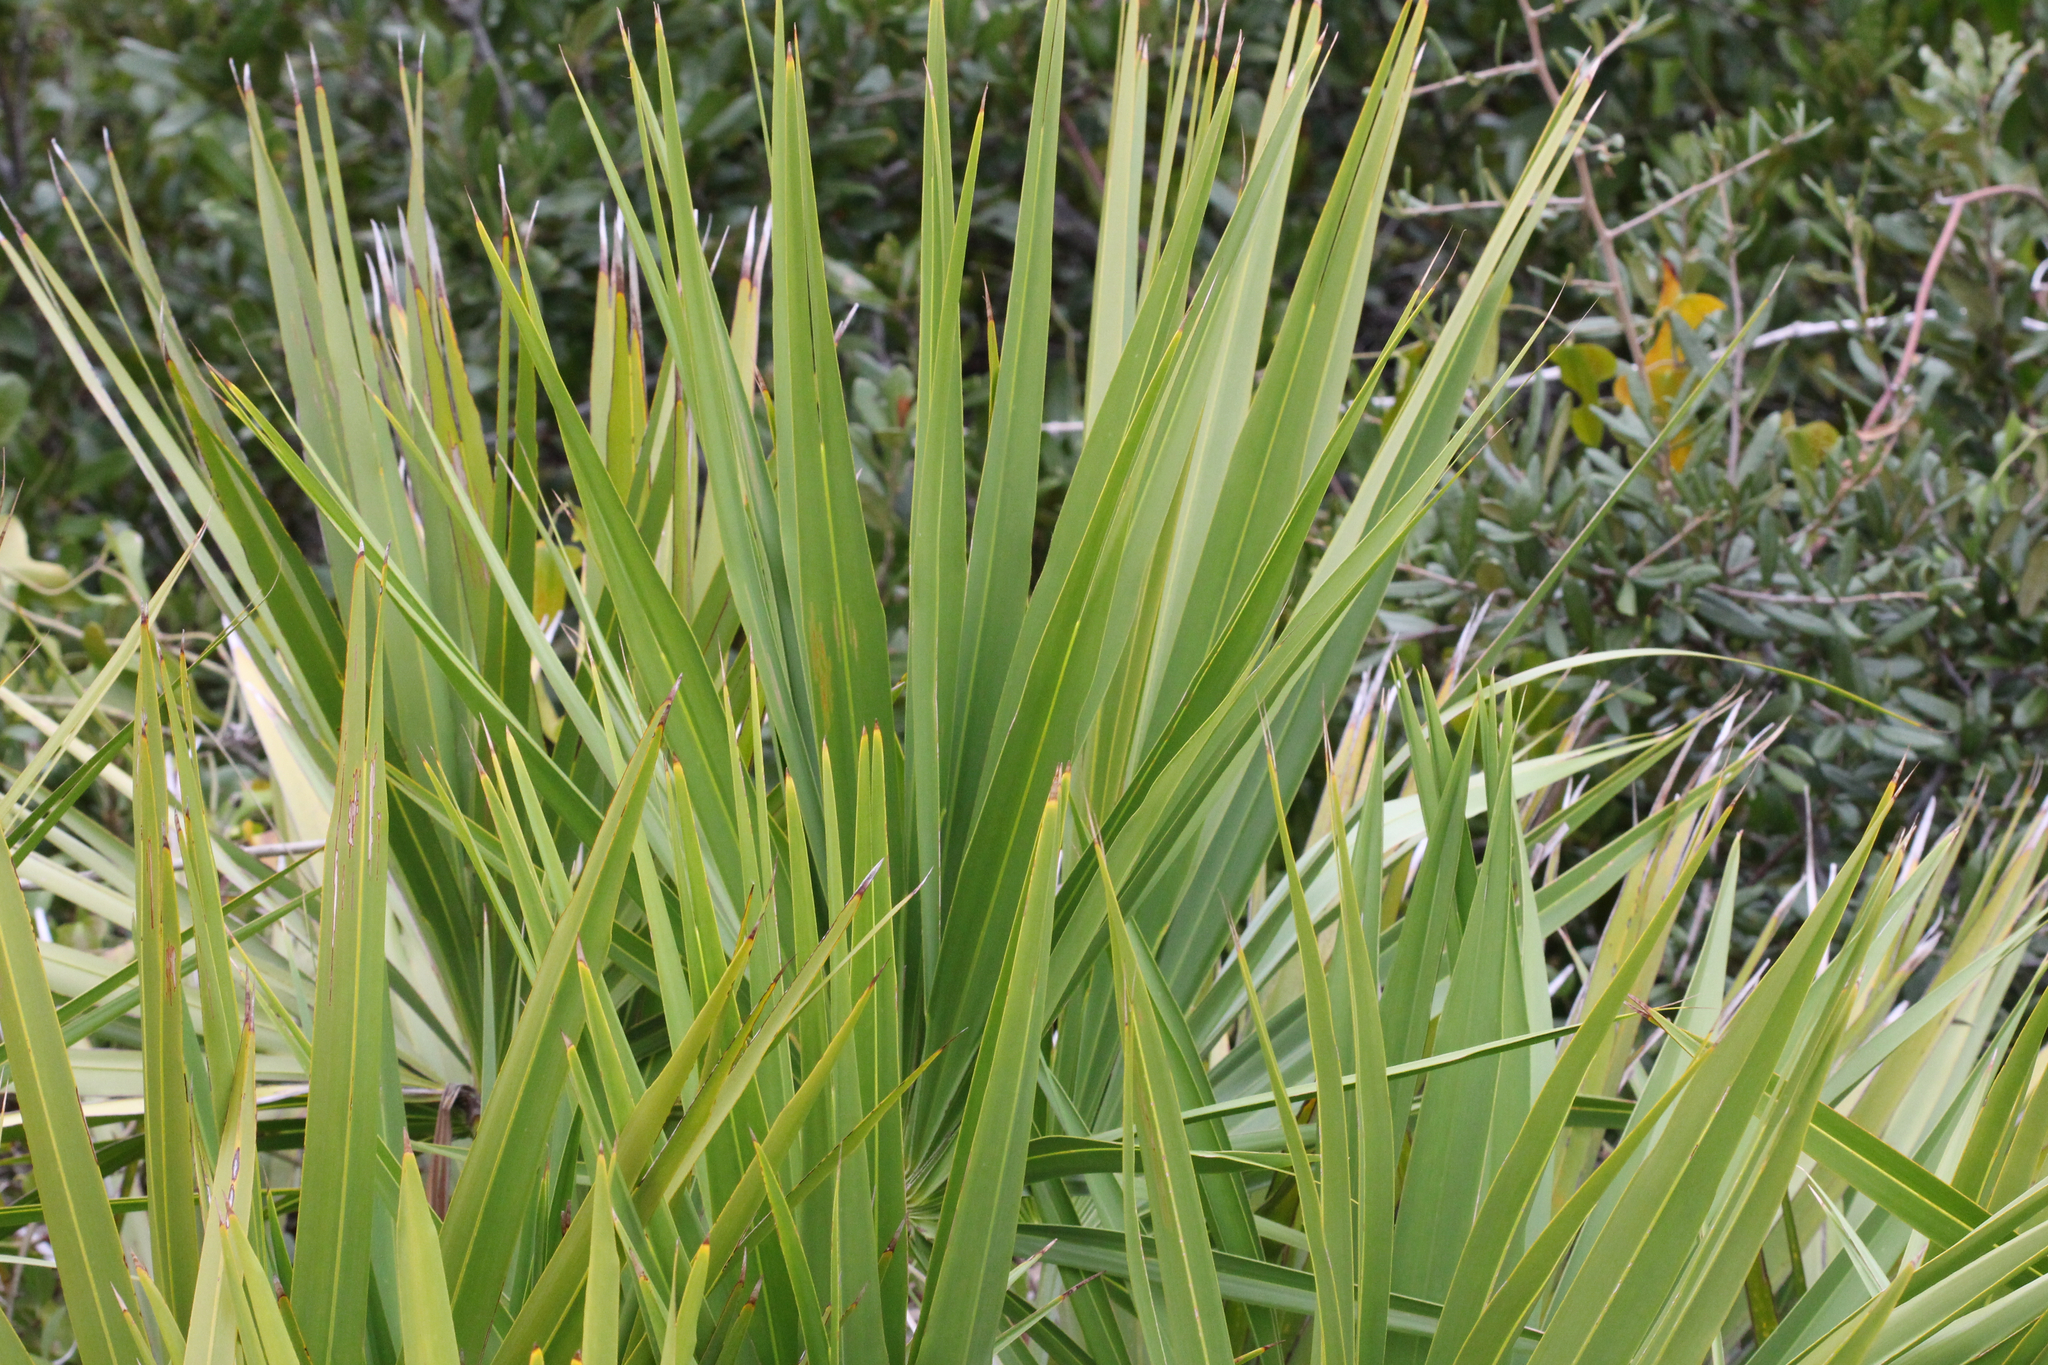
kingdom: Plantae
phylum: Tracheophyta
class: Liliopsida
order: Arecales
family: Arecaceae
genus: Serenoa
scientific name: Serenoa repens
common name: Saw-palmetto
